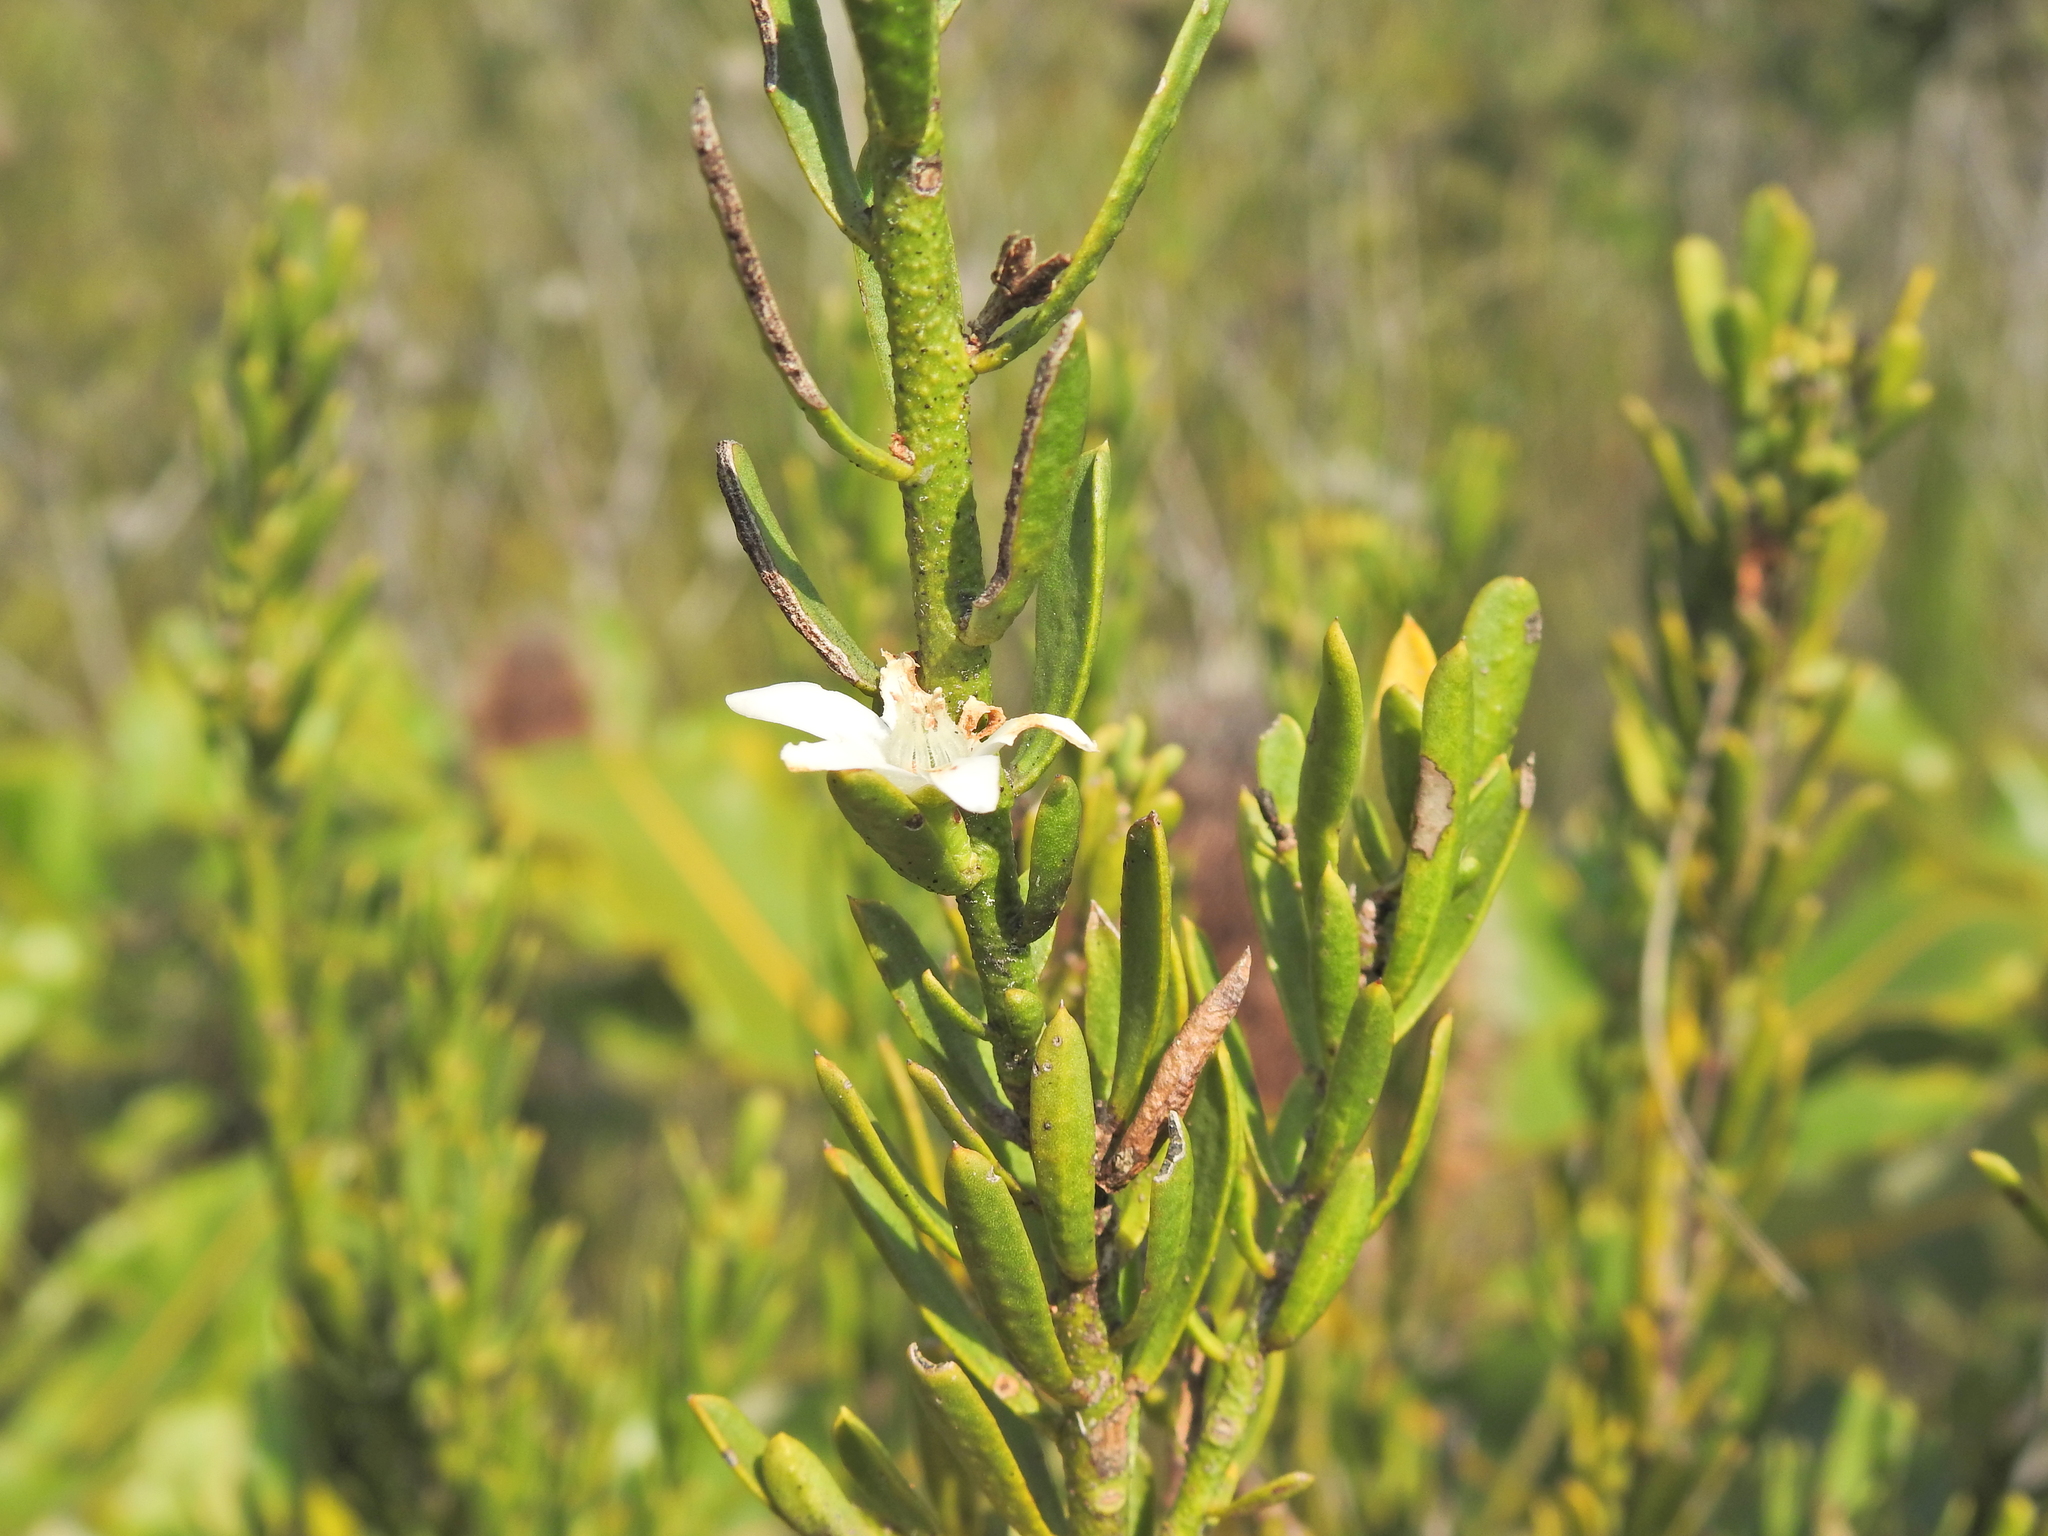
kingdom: Plantae
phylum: Tracheophyta
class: Magnoliopsida
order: Sapindales
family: Rutaceae
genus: Philotheca
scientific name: Philotheca queenslandica
